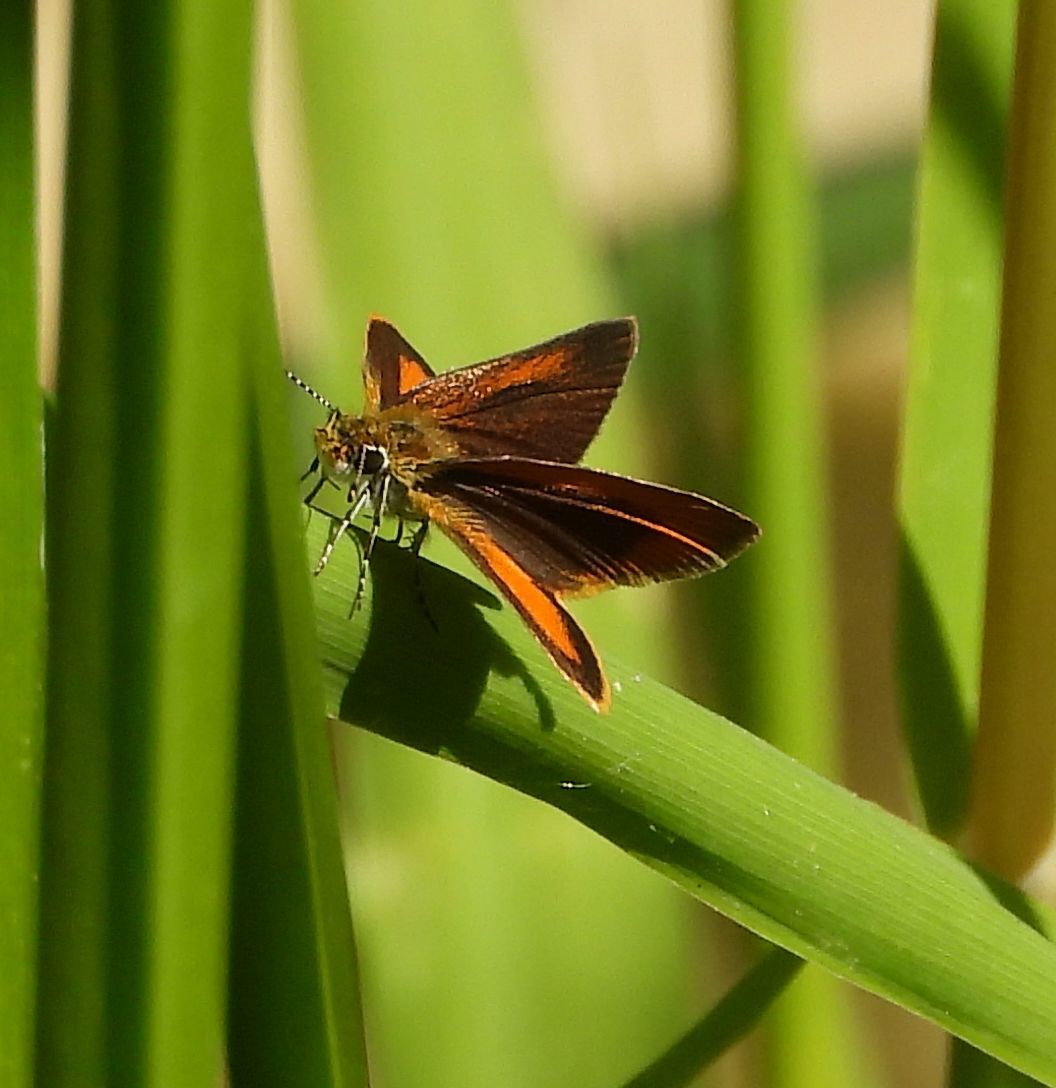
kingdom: Animalia
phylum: Arthropoda
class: Insecta
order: Lepidoptera
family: Hesperiidae
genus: Ancyloxypha
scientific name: Ancyloxypha numitor
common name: Least skipper
